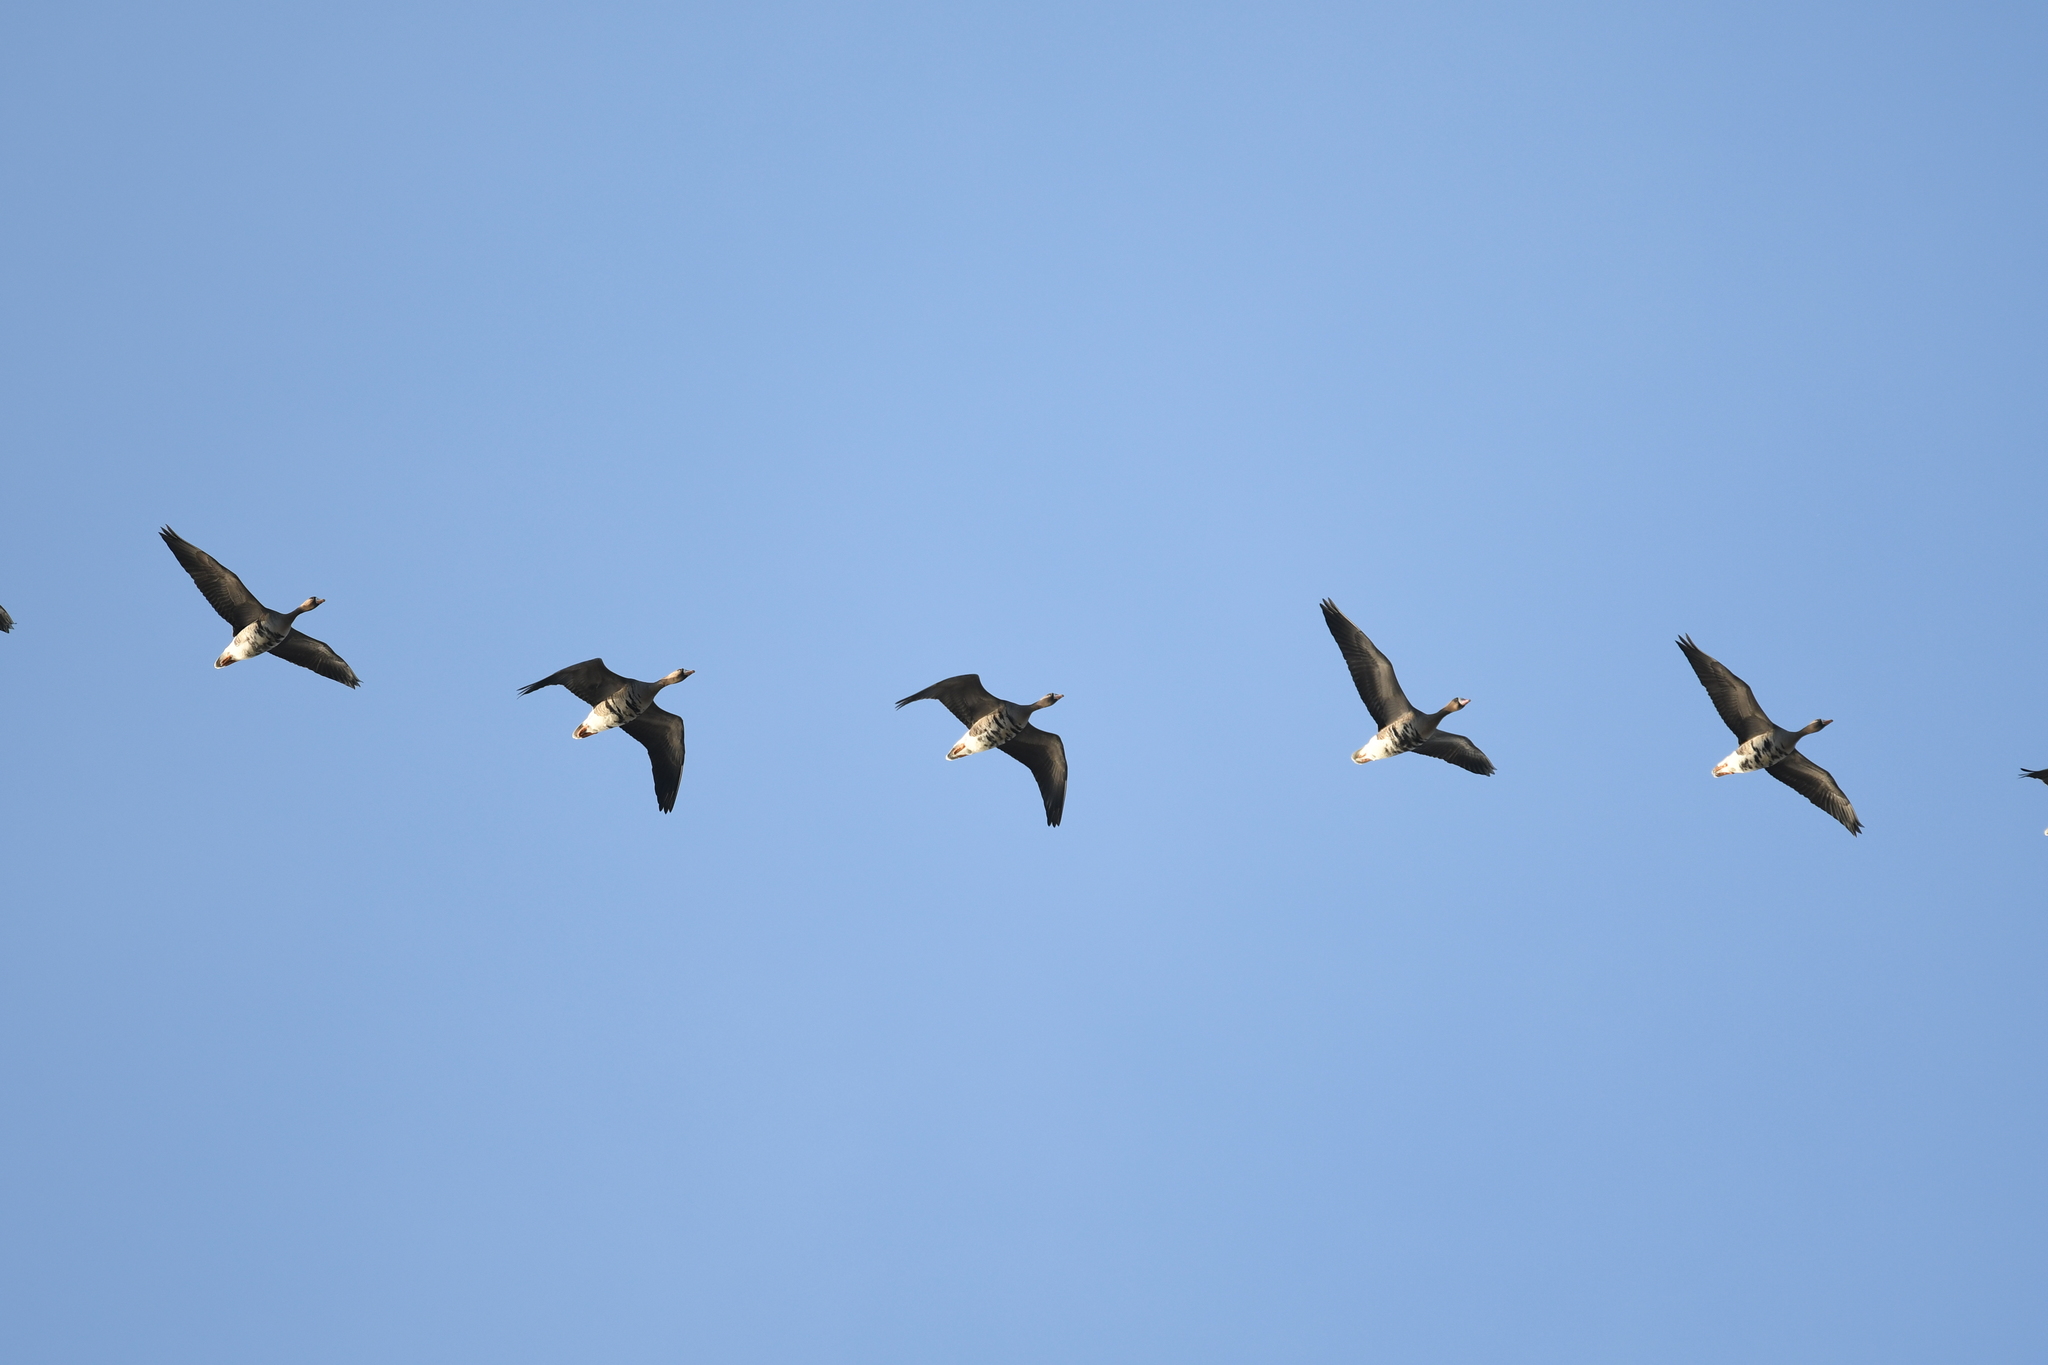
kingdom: Animalia
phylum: Chordata
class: Aves
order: Anseriformes
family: Anatidae
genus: Anser
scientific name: Anser albifrons
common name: Greater white-fronted goose
